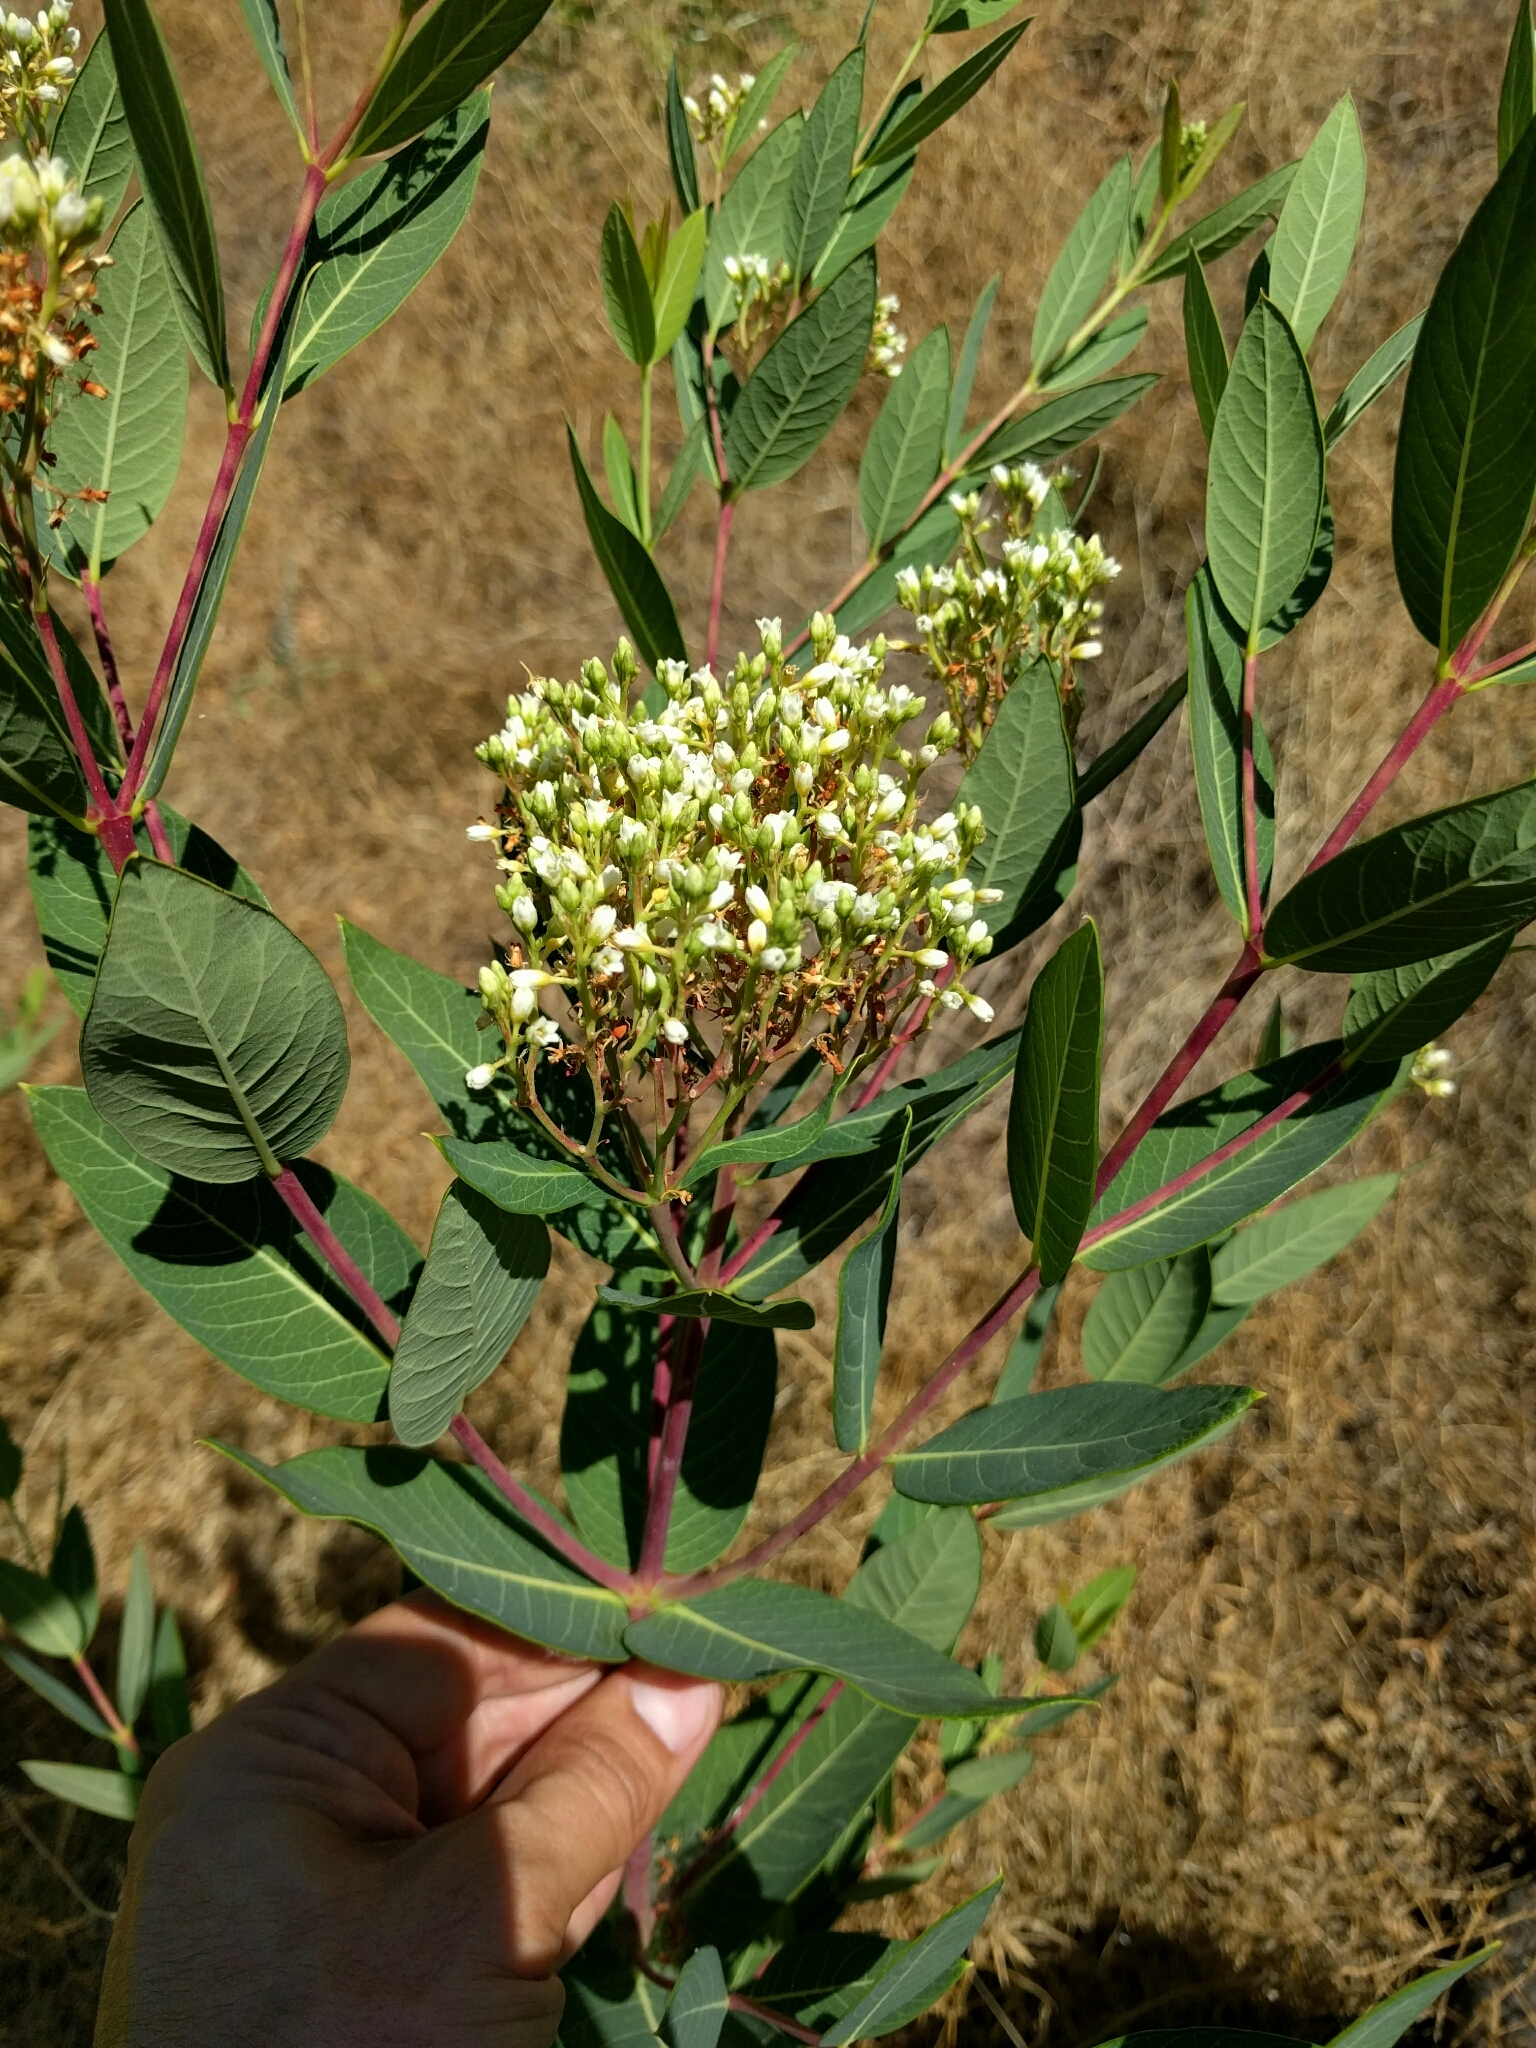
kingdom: Plantae
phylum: Tracheophyta
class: Magnoliopsida
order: Gentianales
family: Apocynaceae
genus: Apocynum
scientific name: Apocynum cannabinum
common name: Hemp dogbane
